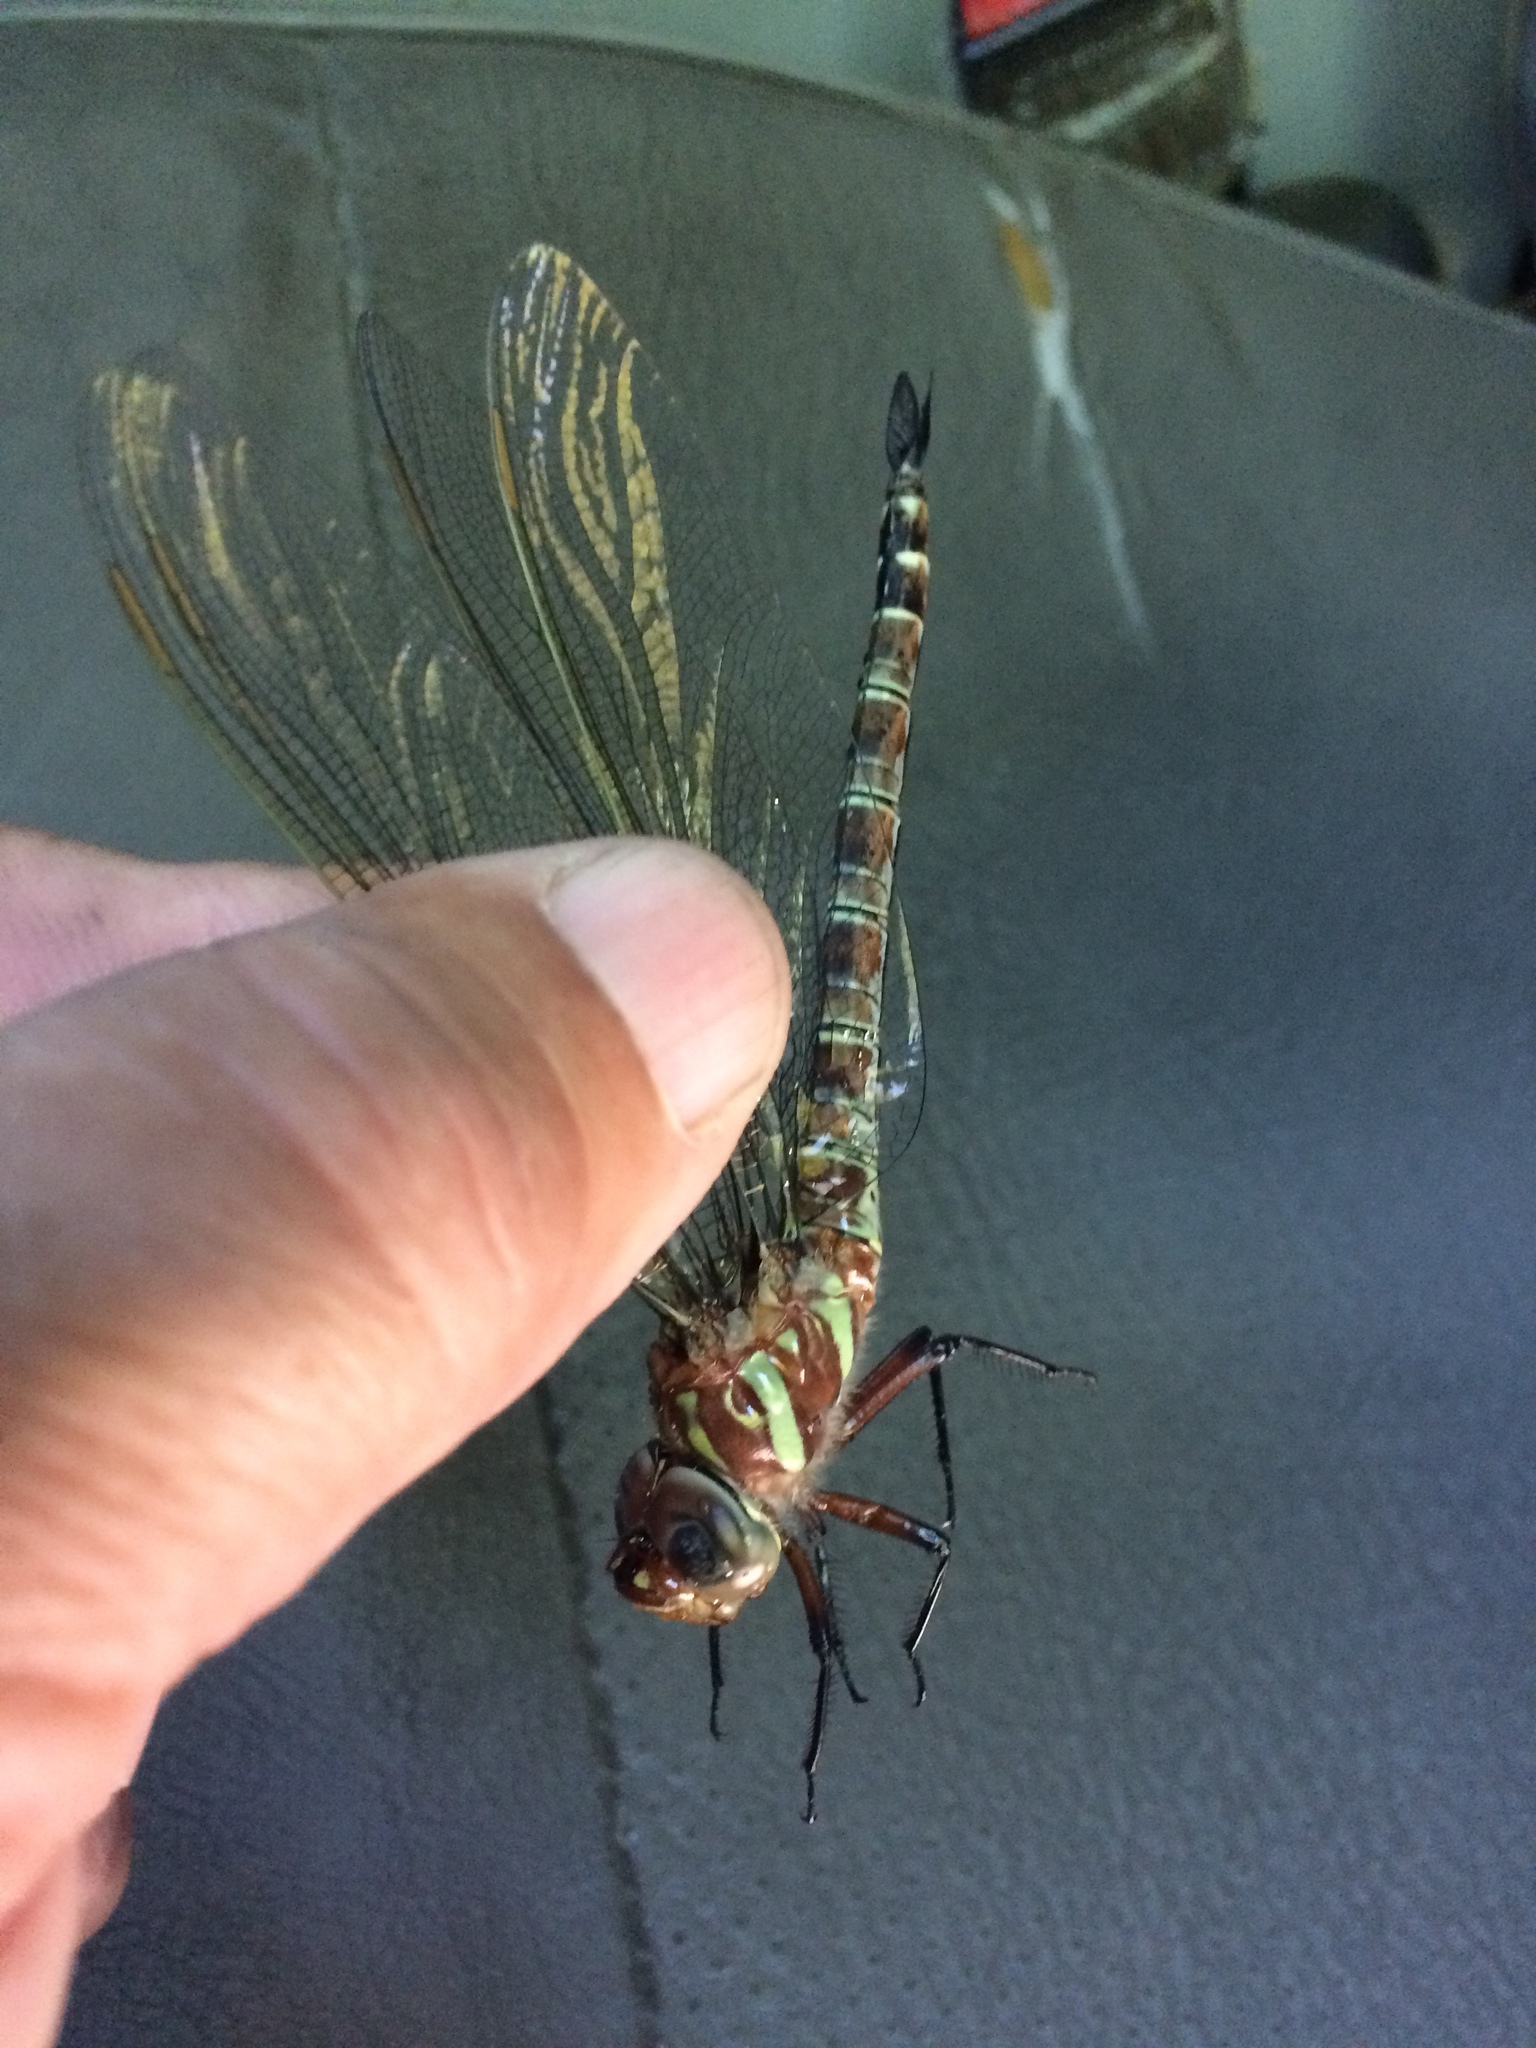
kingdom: Animalia
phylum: Arthropoda
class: Insecta
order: Odonata
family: Aeshnidae
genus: Epiaeschna
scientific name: Epiaeschna heros
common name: Swamp darner
